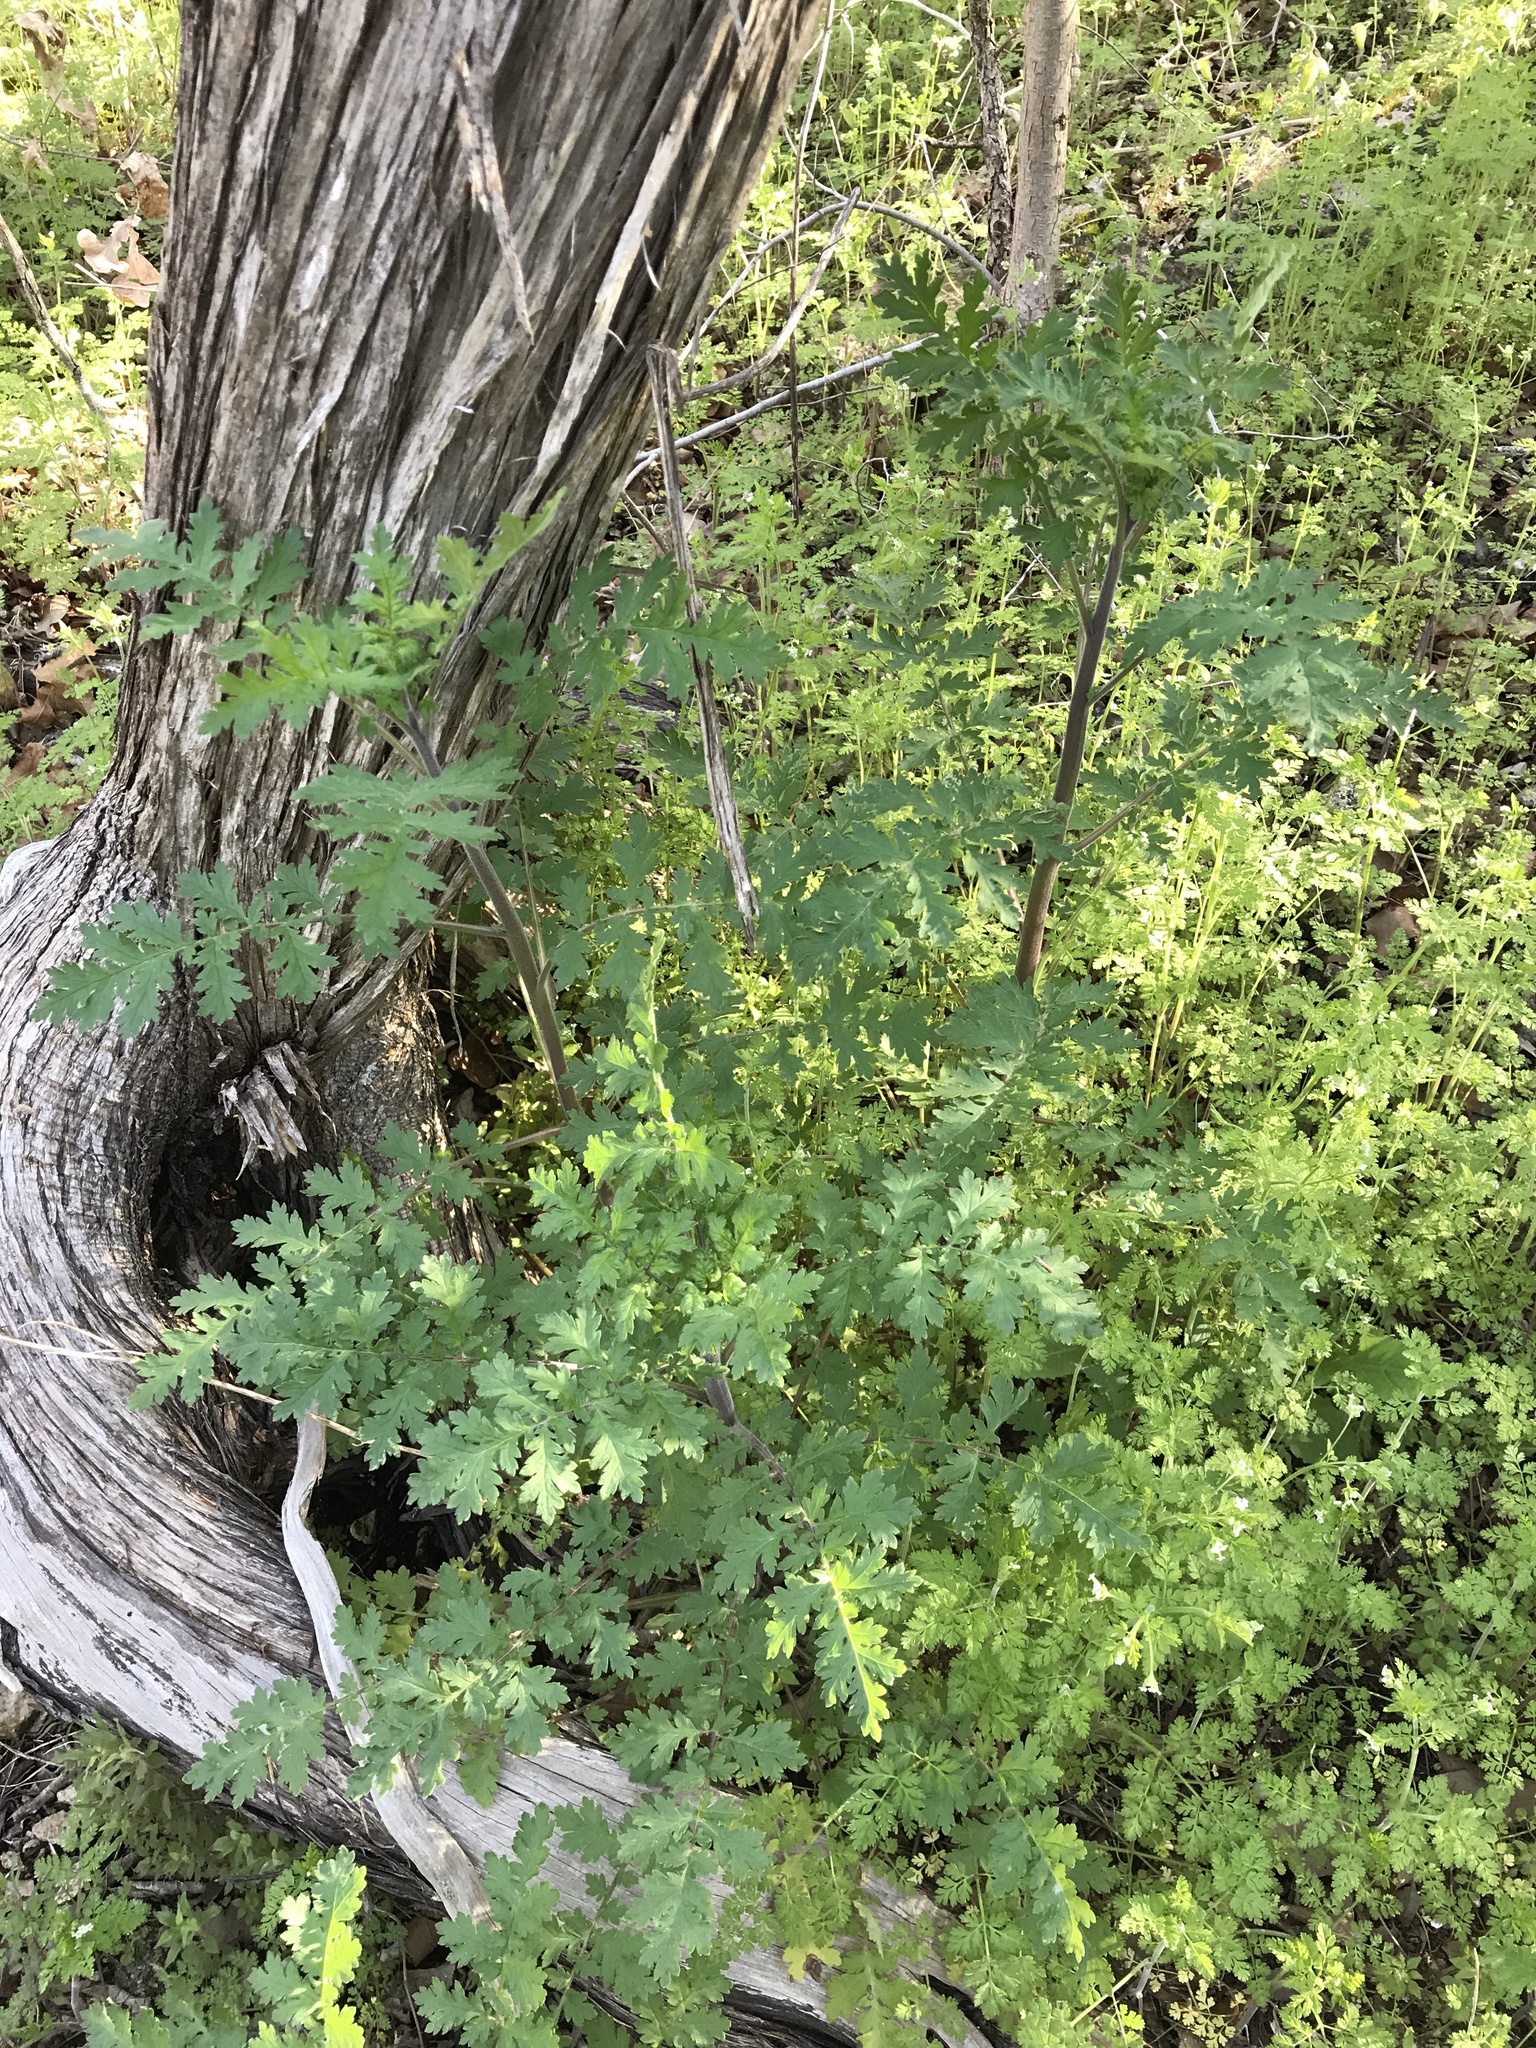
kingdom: Plantae
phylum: Tracheophyta
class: Magnoliopsida
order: Boraginales
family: Hydrophyllaceae
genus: Phacelia
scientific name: Phacelia congesta
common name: Blue curls
